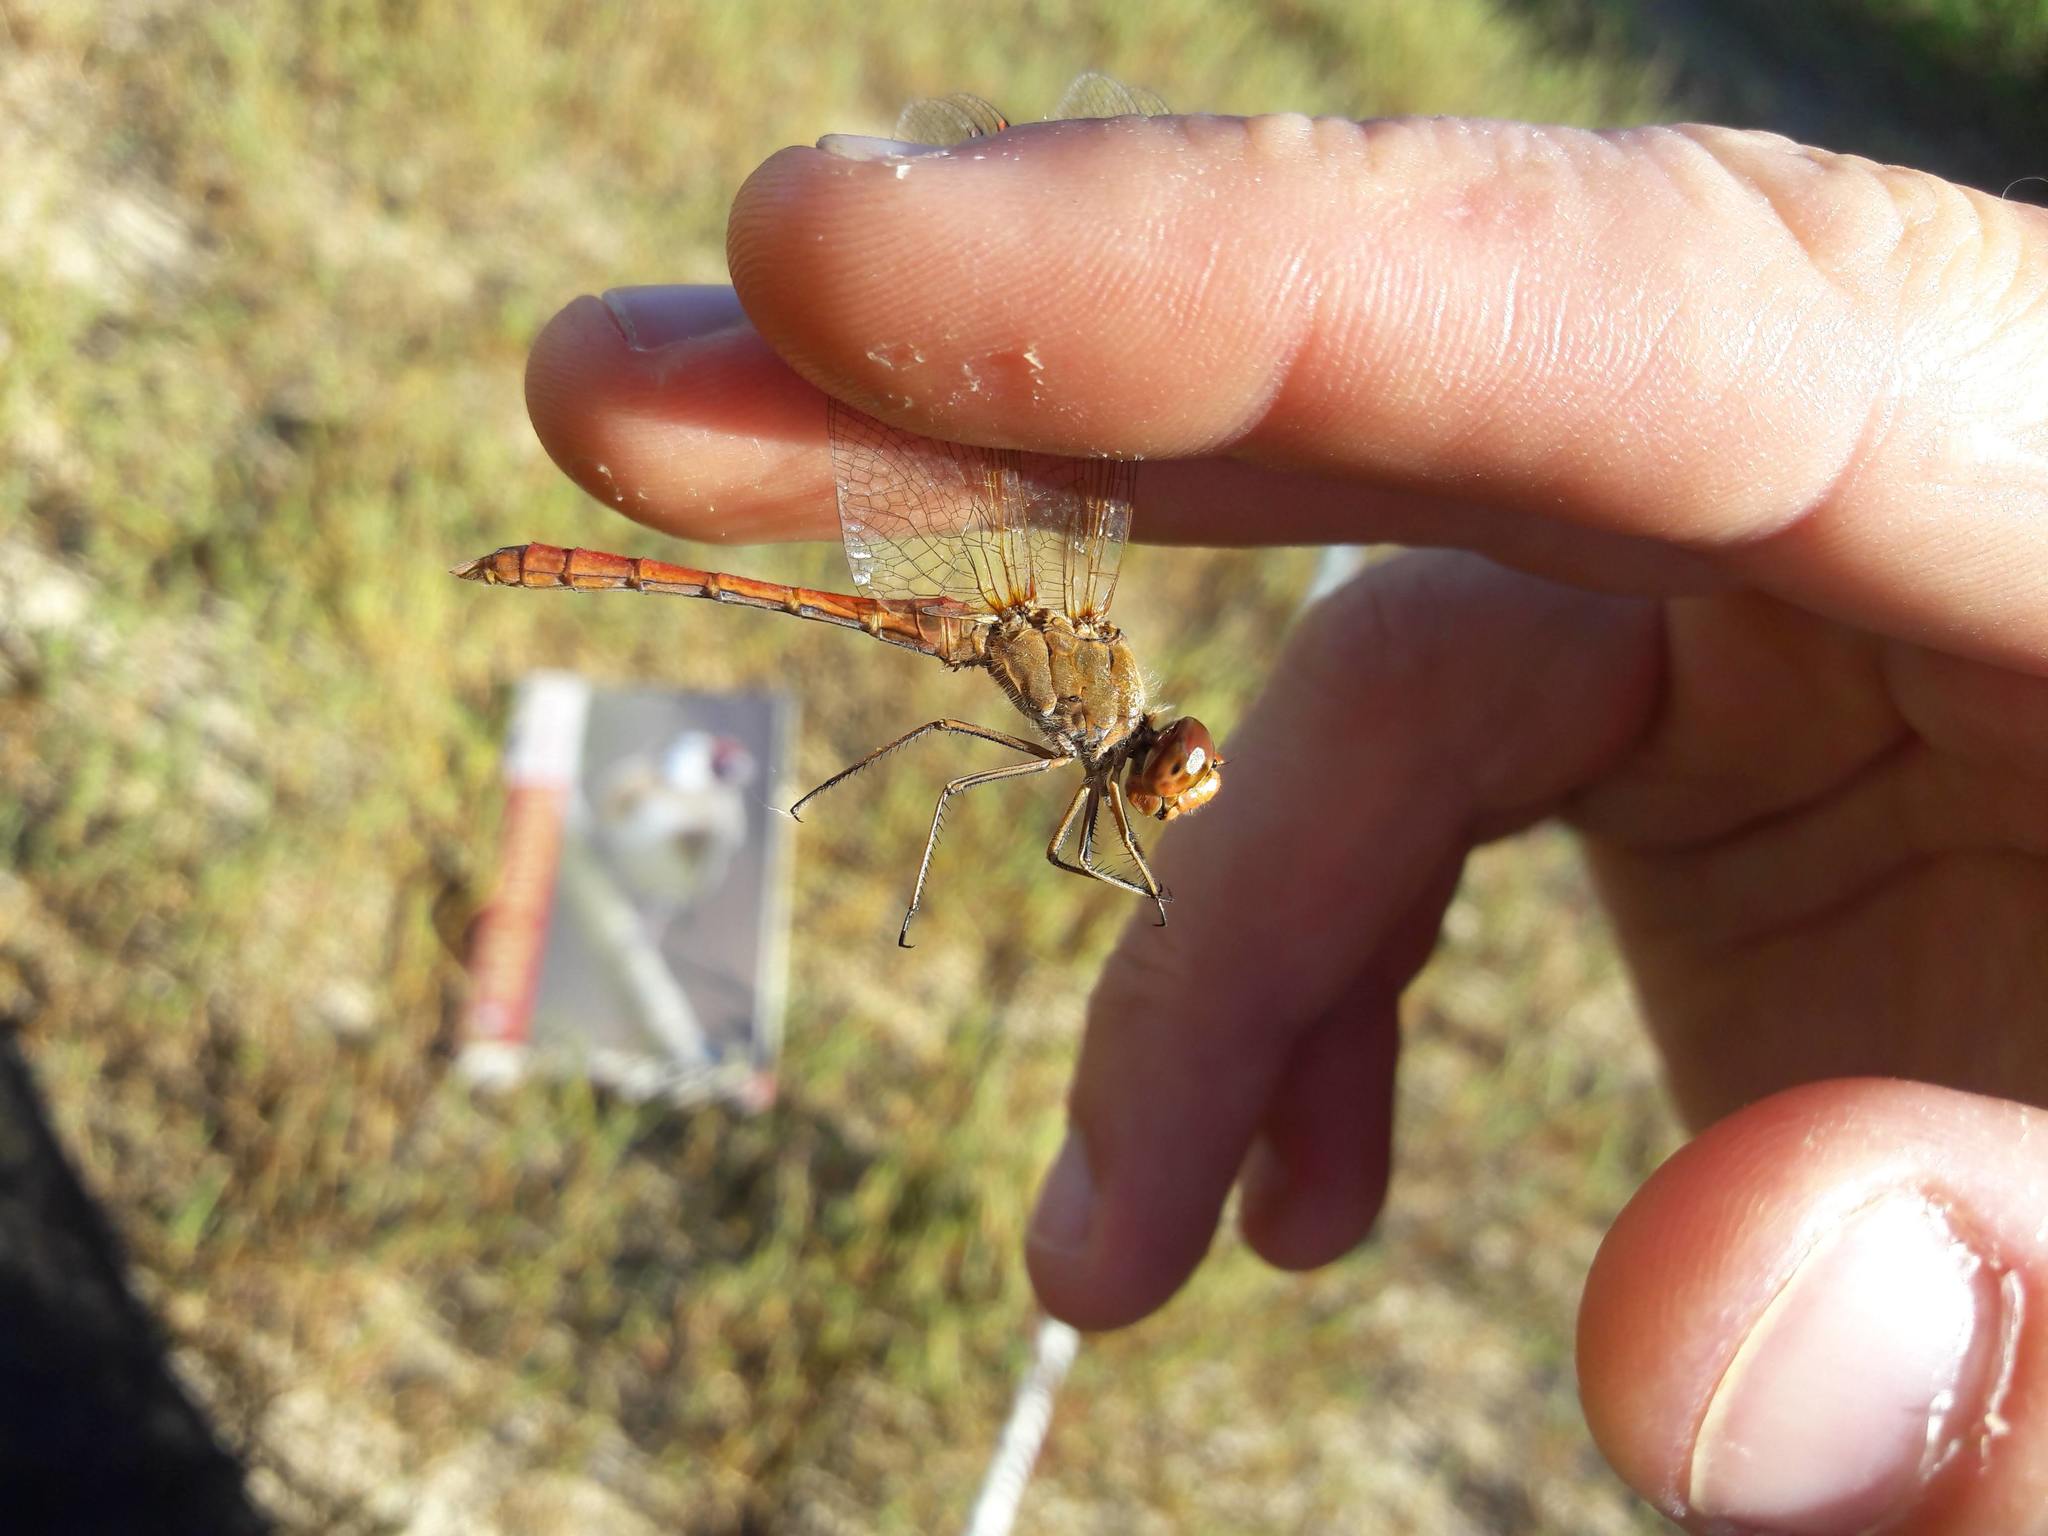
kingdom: Animalia
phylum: Arthropoda
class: Insecta
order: Odonata
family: Libellulidae
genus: Sympetrum
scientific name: Sympetrum meridionale
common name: Southern darter
